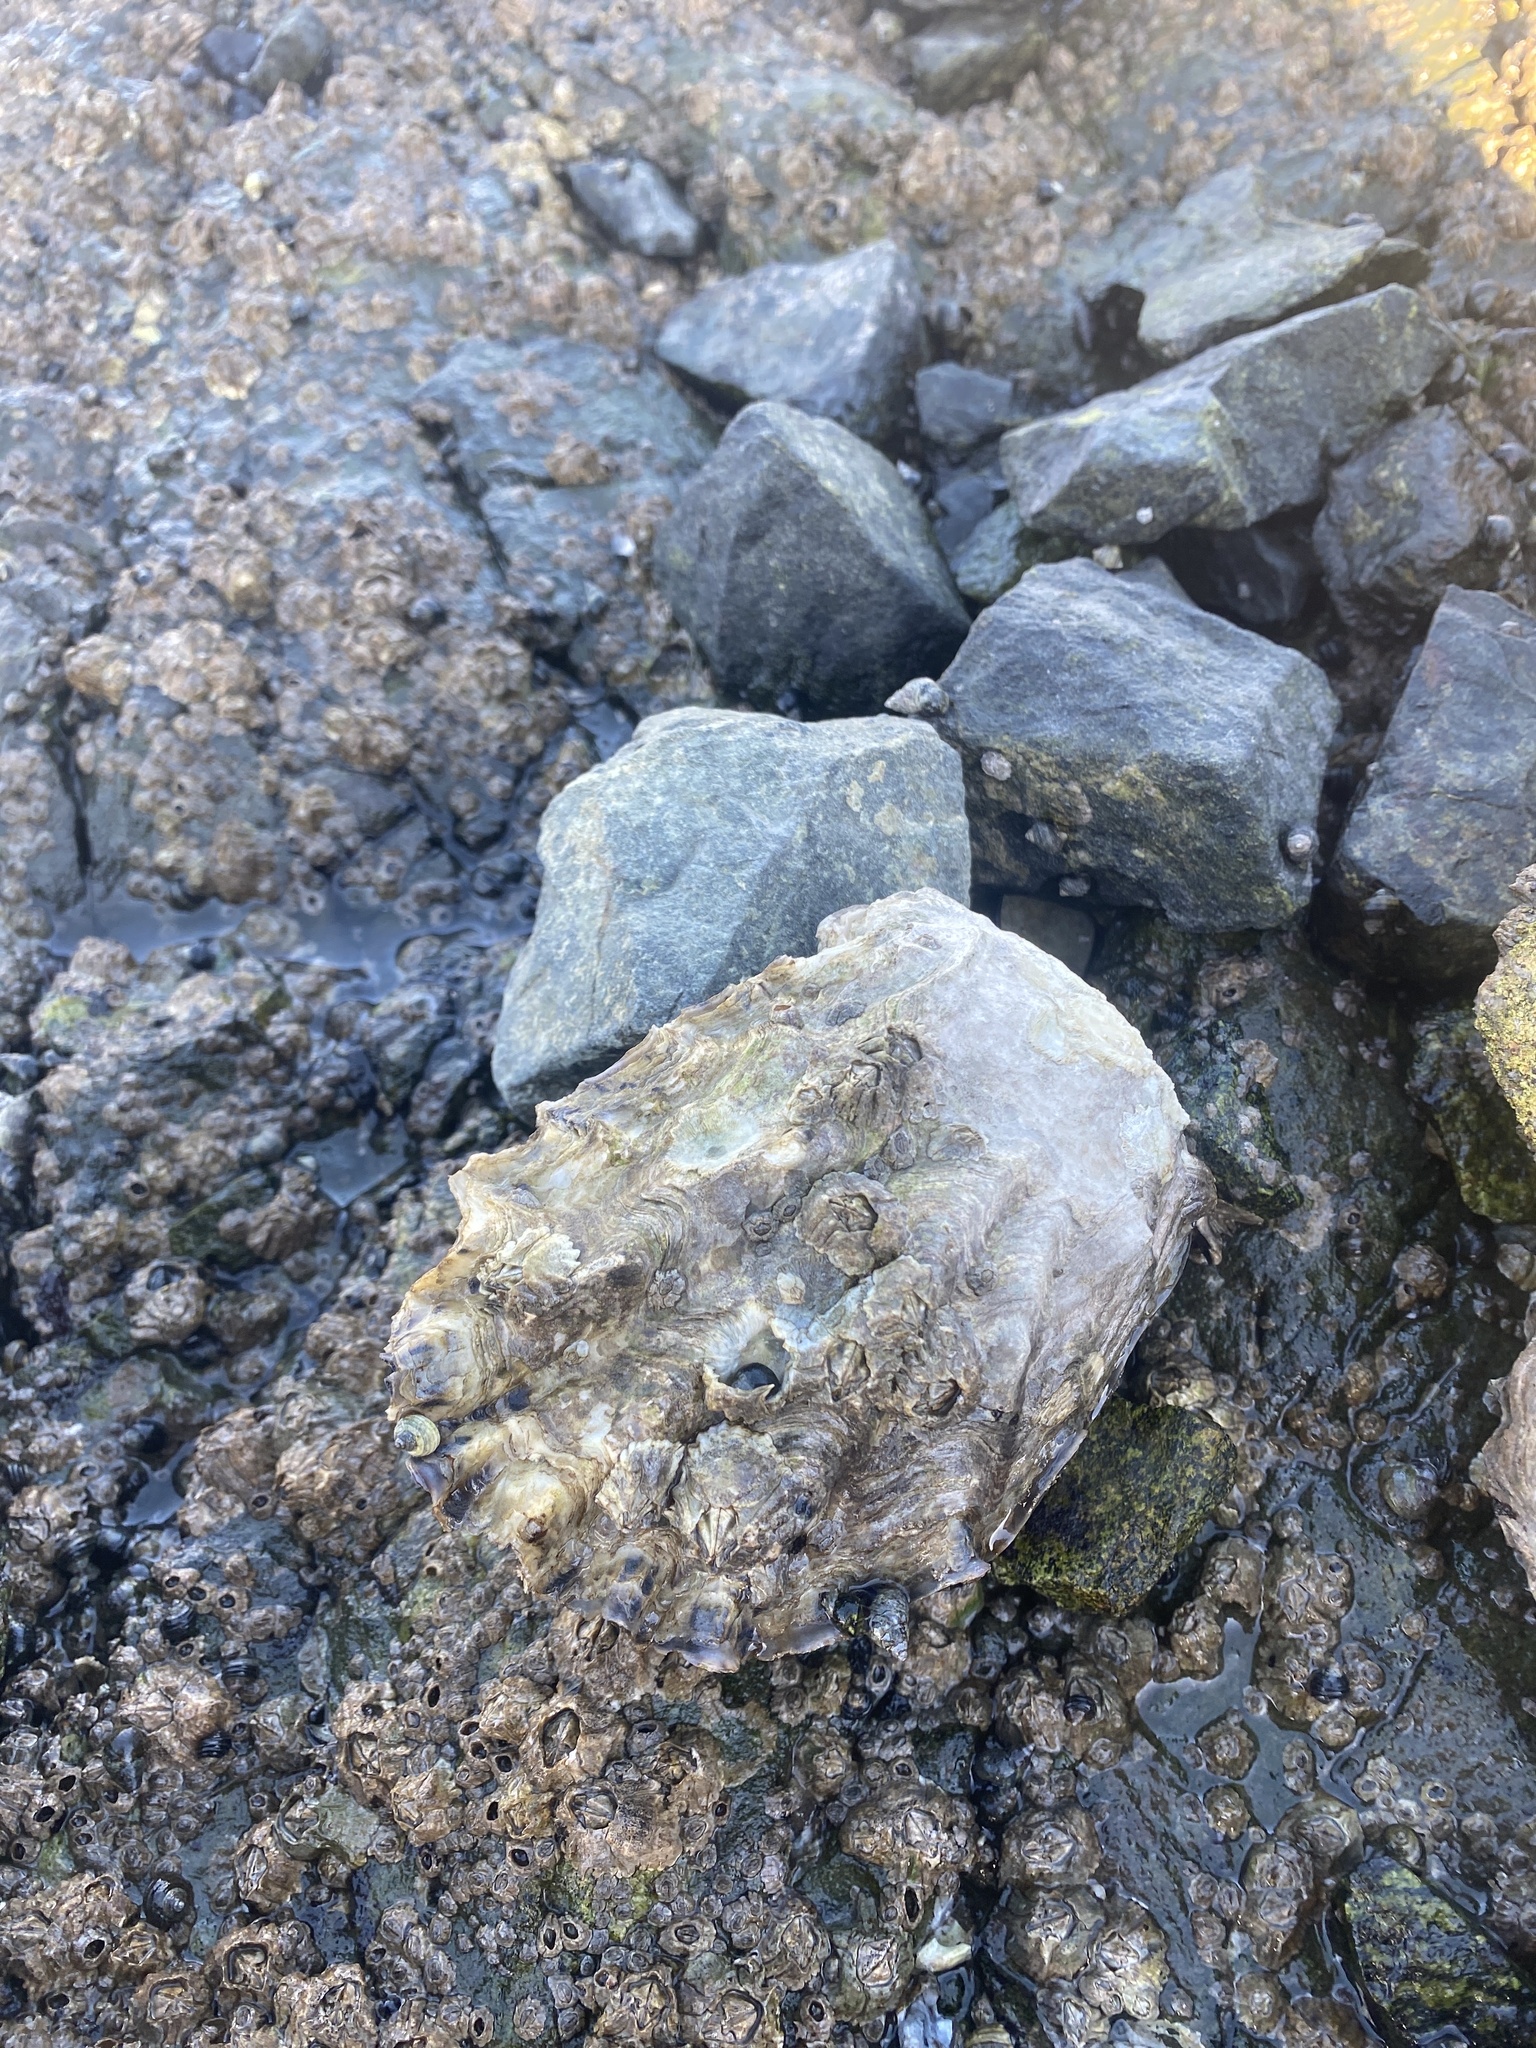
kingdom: Animalia
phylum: Mollusca
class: Bivalvia
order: Ostreida
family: Ostreidae
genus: Magallana
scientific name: Magallana gigas
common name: Pacific oyster
